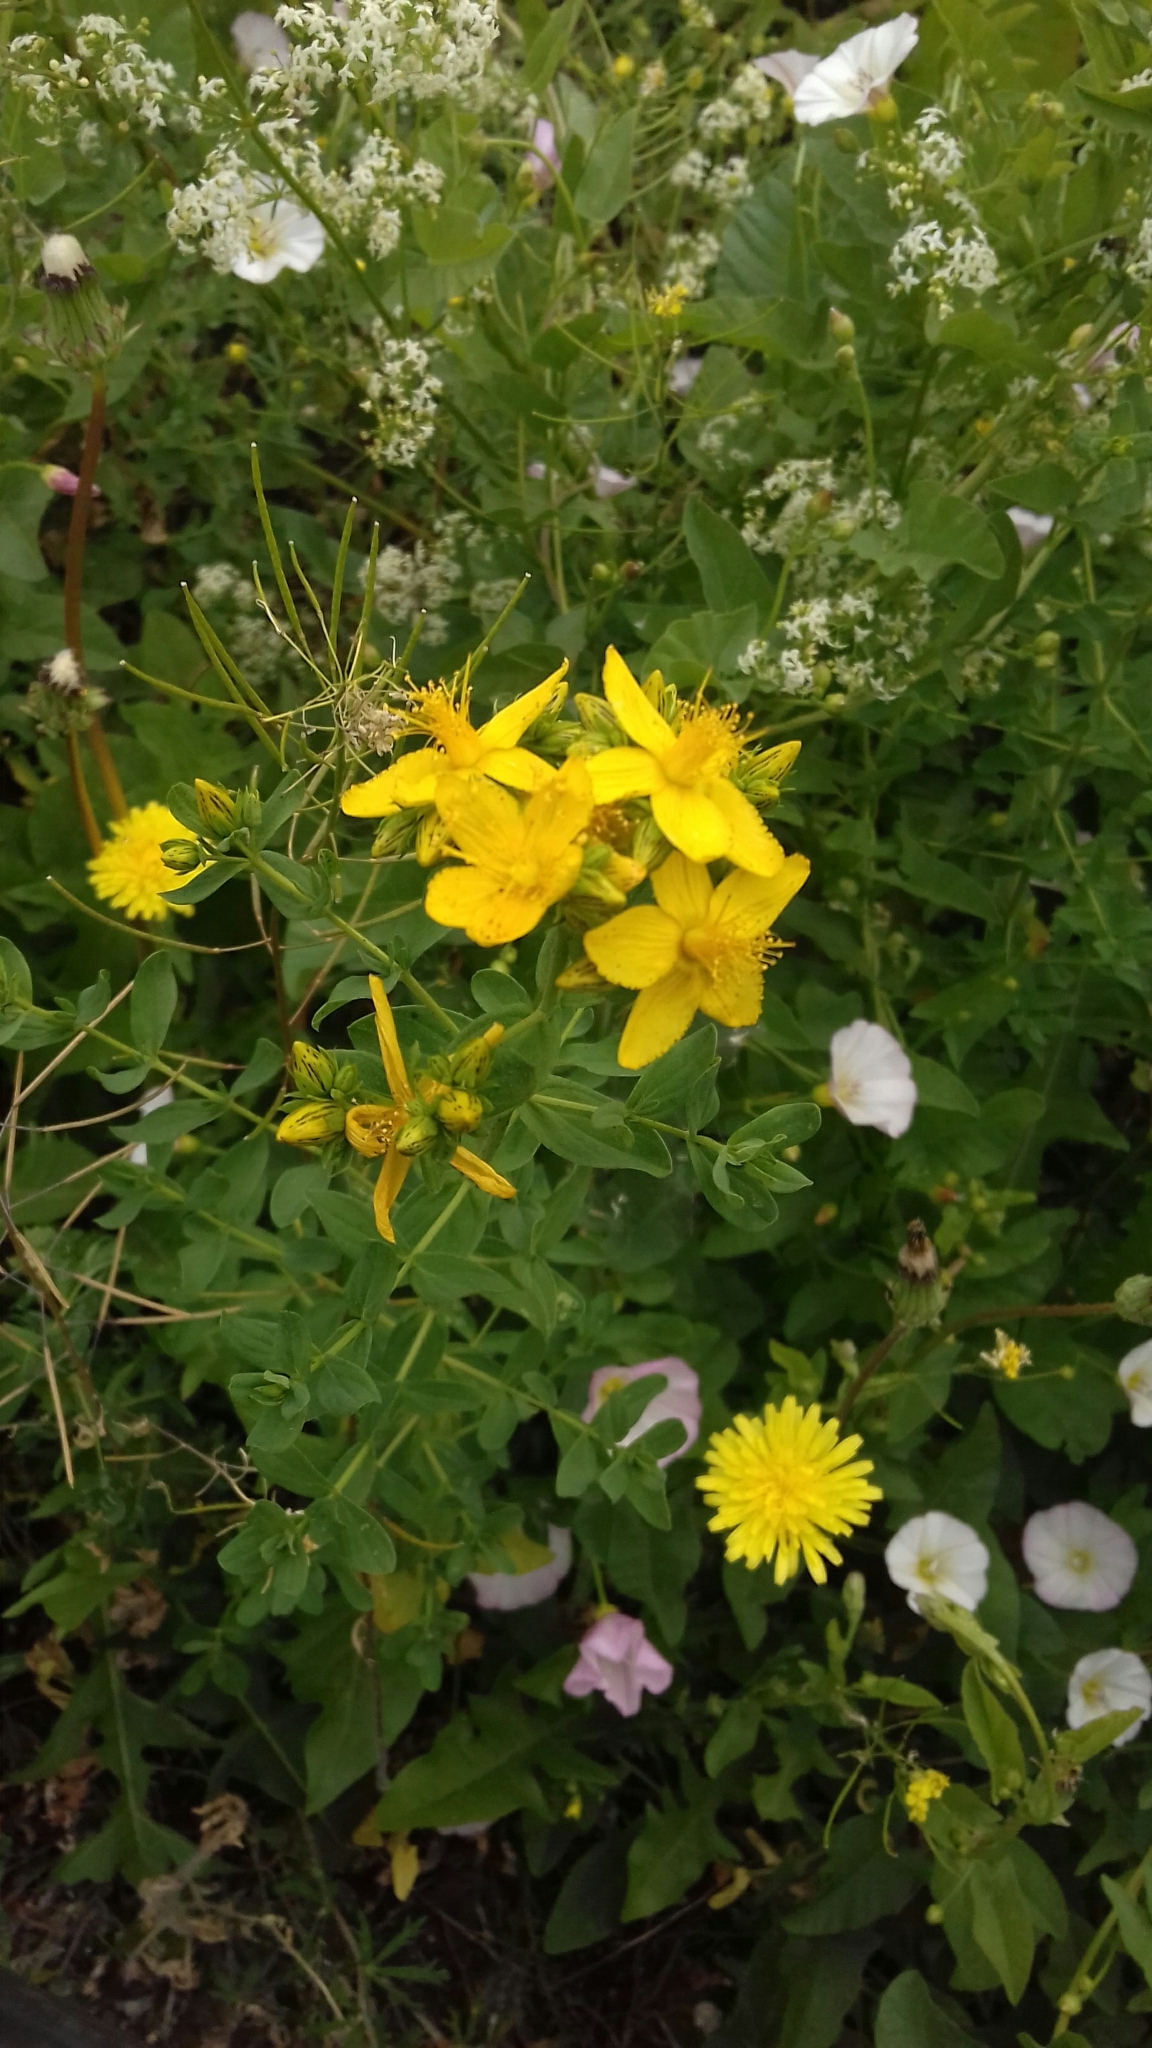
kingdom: Plantae
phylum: Tracheophyta
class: Magnoliopsida
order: Malpighiales
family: Hypericaceae
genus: Hypericum
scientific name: Hypericum perforatum
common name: Common st. johnswort
